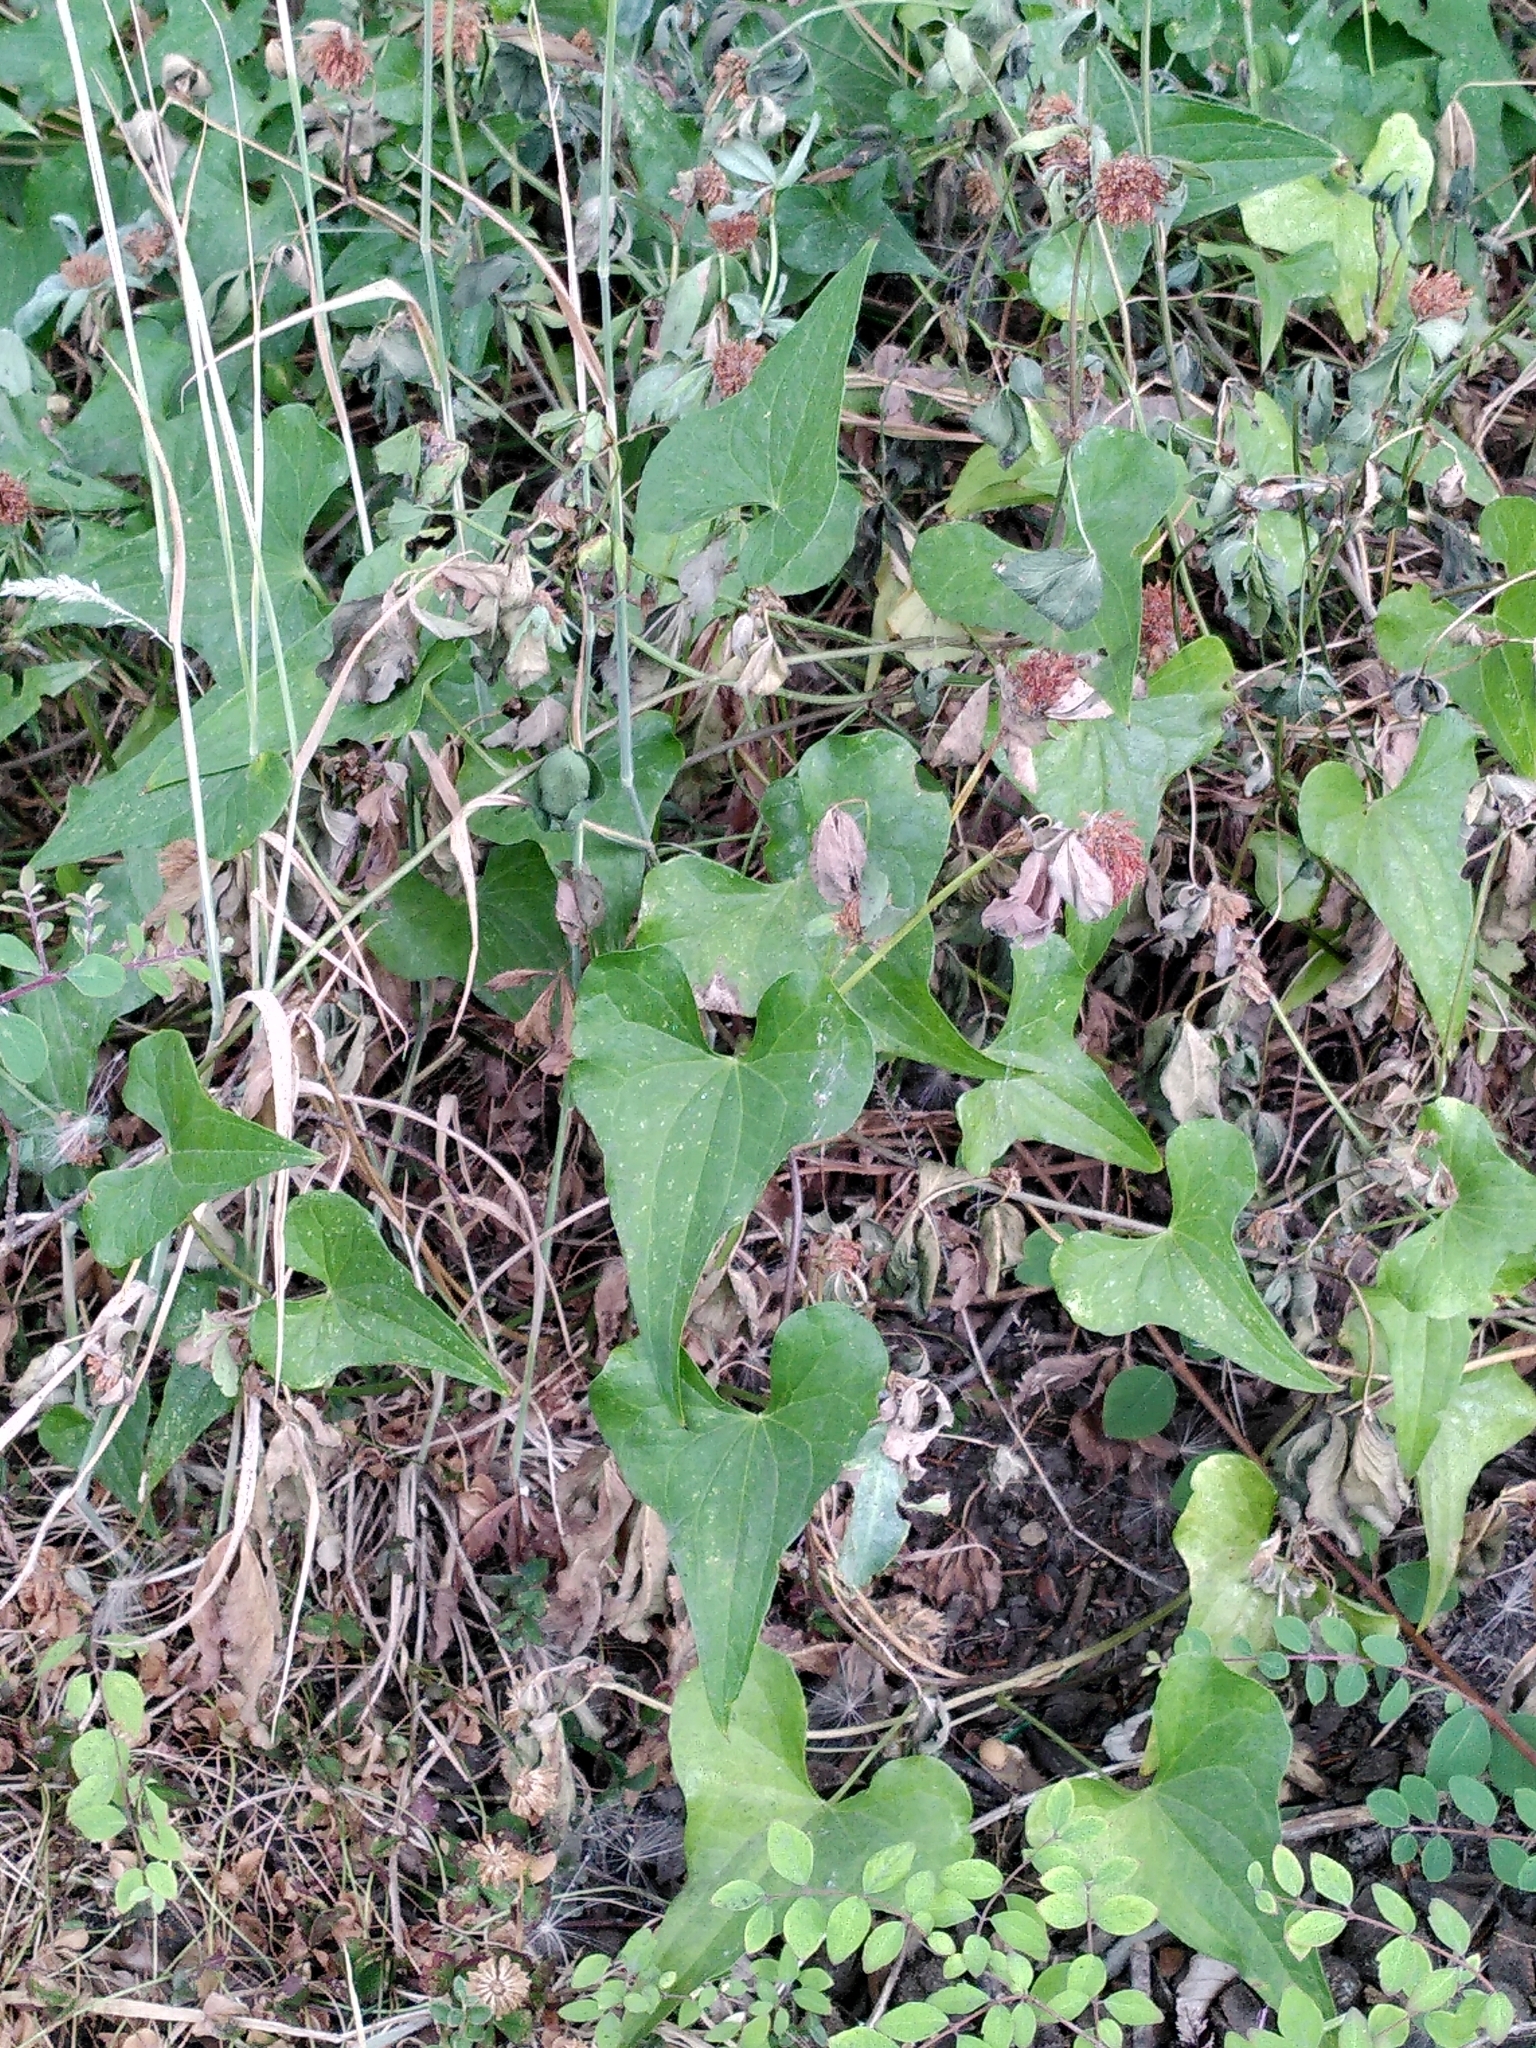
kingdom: Plantae
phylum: Tracheophyta
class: Liliopsida
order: Dioscoreales
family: Dioscoreaceae
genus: Dioscorea
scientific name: Dioscorea communis
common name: Black-bindweed
